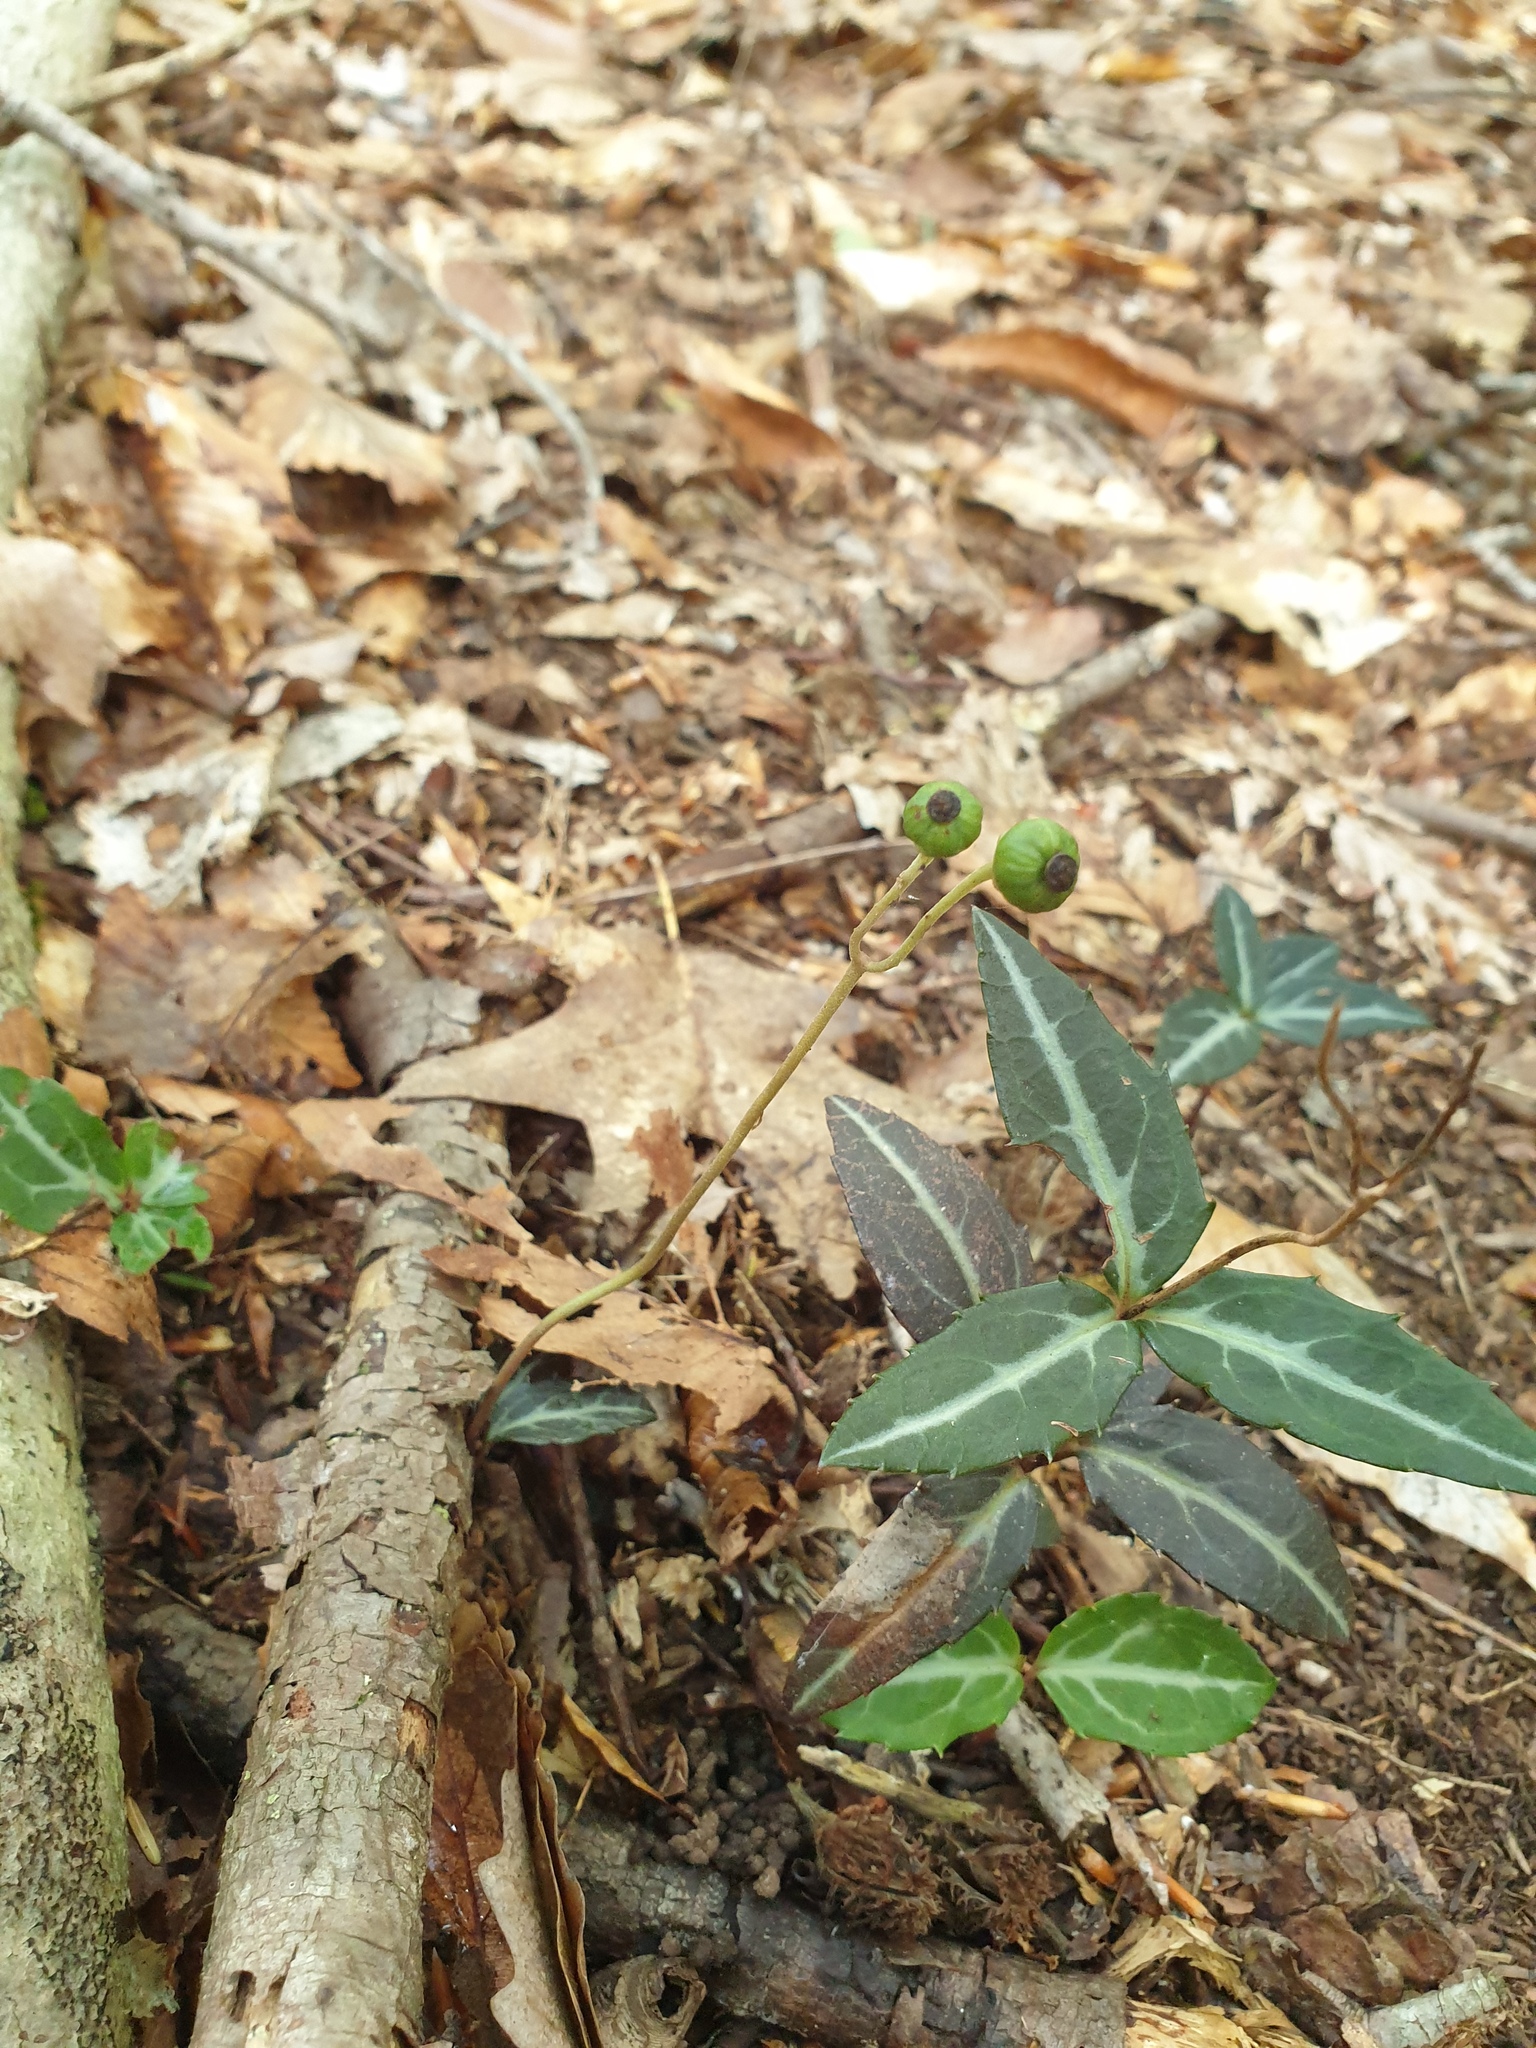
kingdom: Plantae
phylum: Tracheophyta
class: Magnoliopsida
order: Ericales
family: Ericaceae
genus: Chimaphila
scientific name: Chimaphila maculata
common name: Spotted pipsissewa
